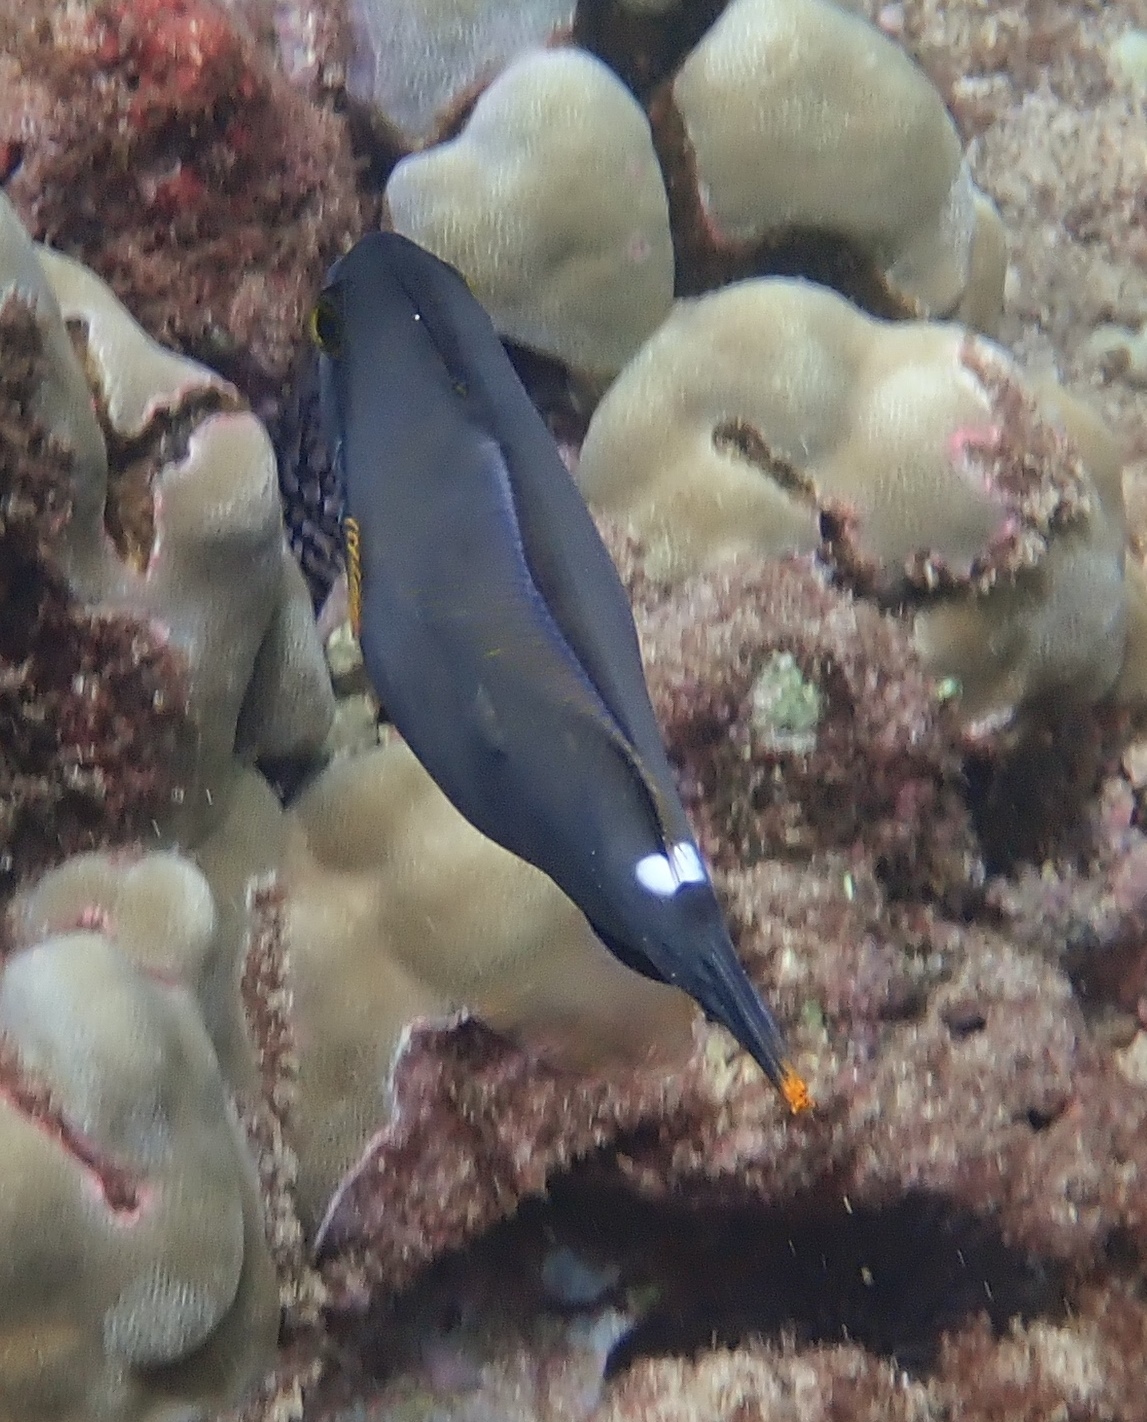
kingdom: Animalia
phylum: Chordata
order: Tetraodontiformes
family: Monacanthidae
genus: Cantherhines
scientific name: Cantherhines sandwichiensis
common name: Sandwich isle file
